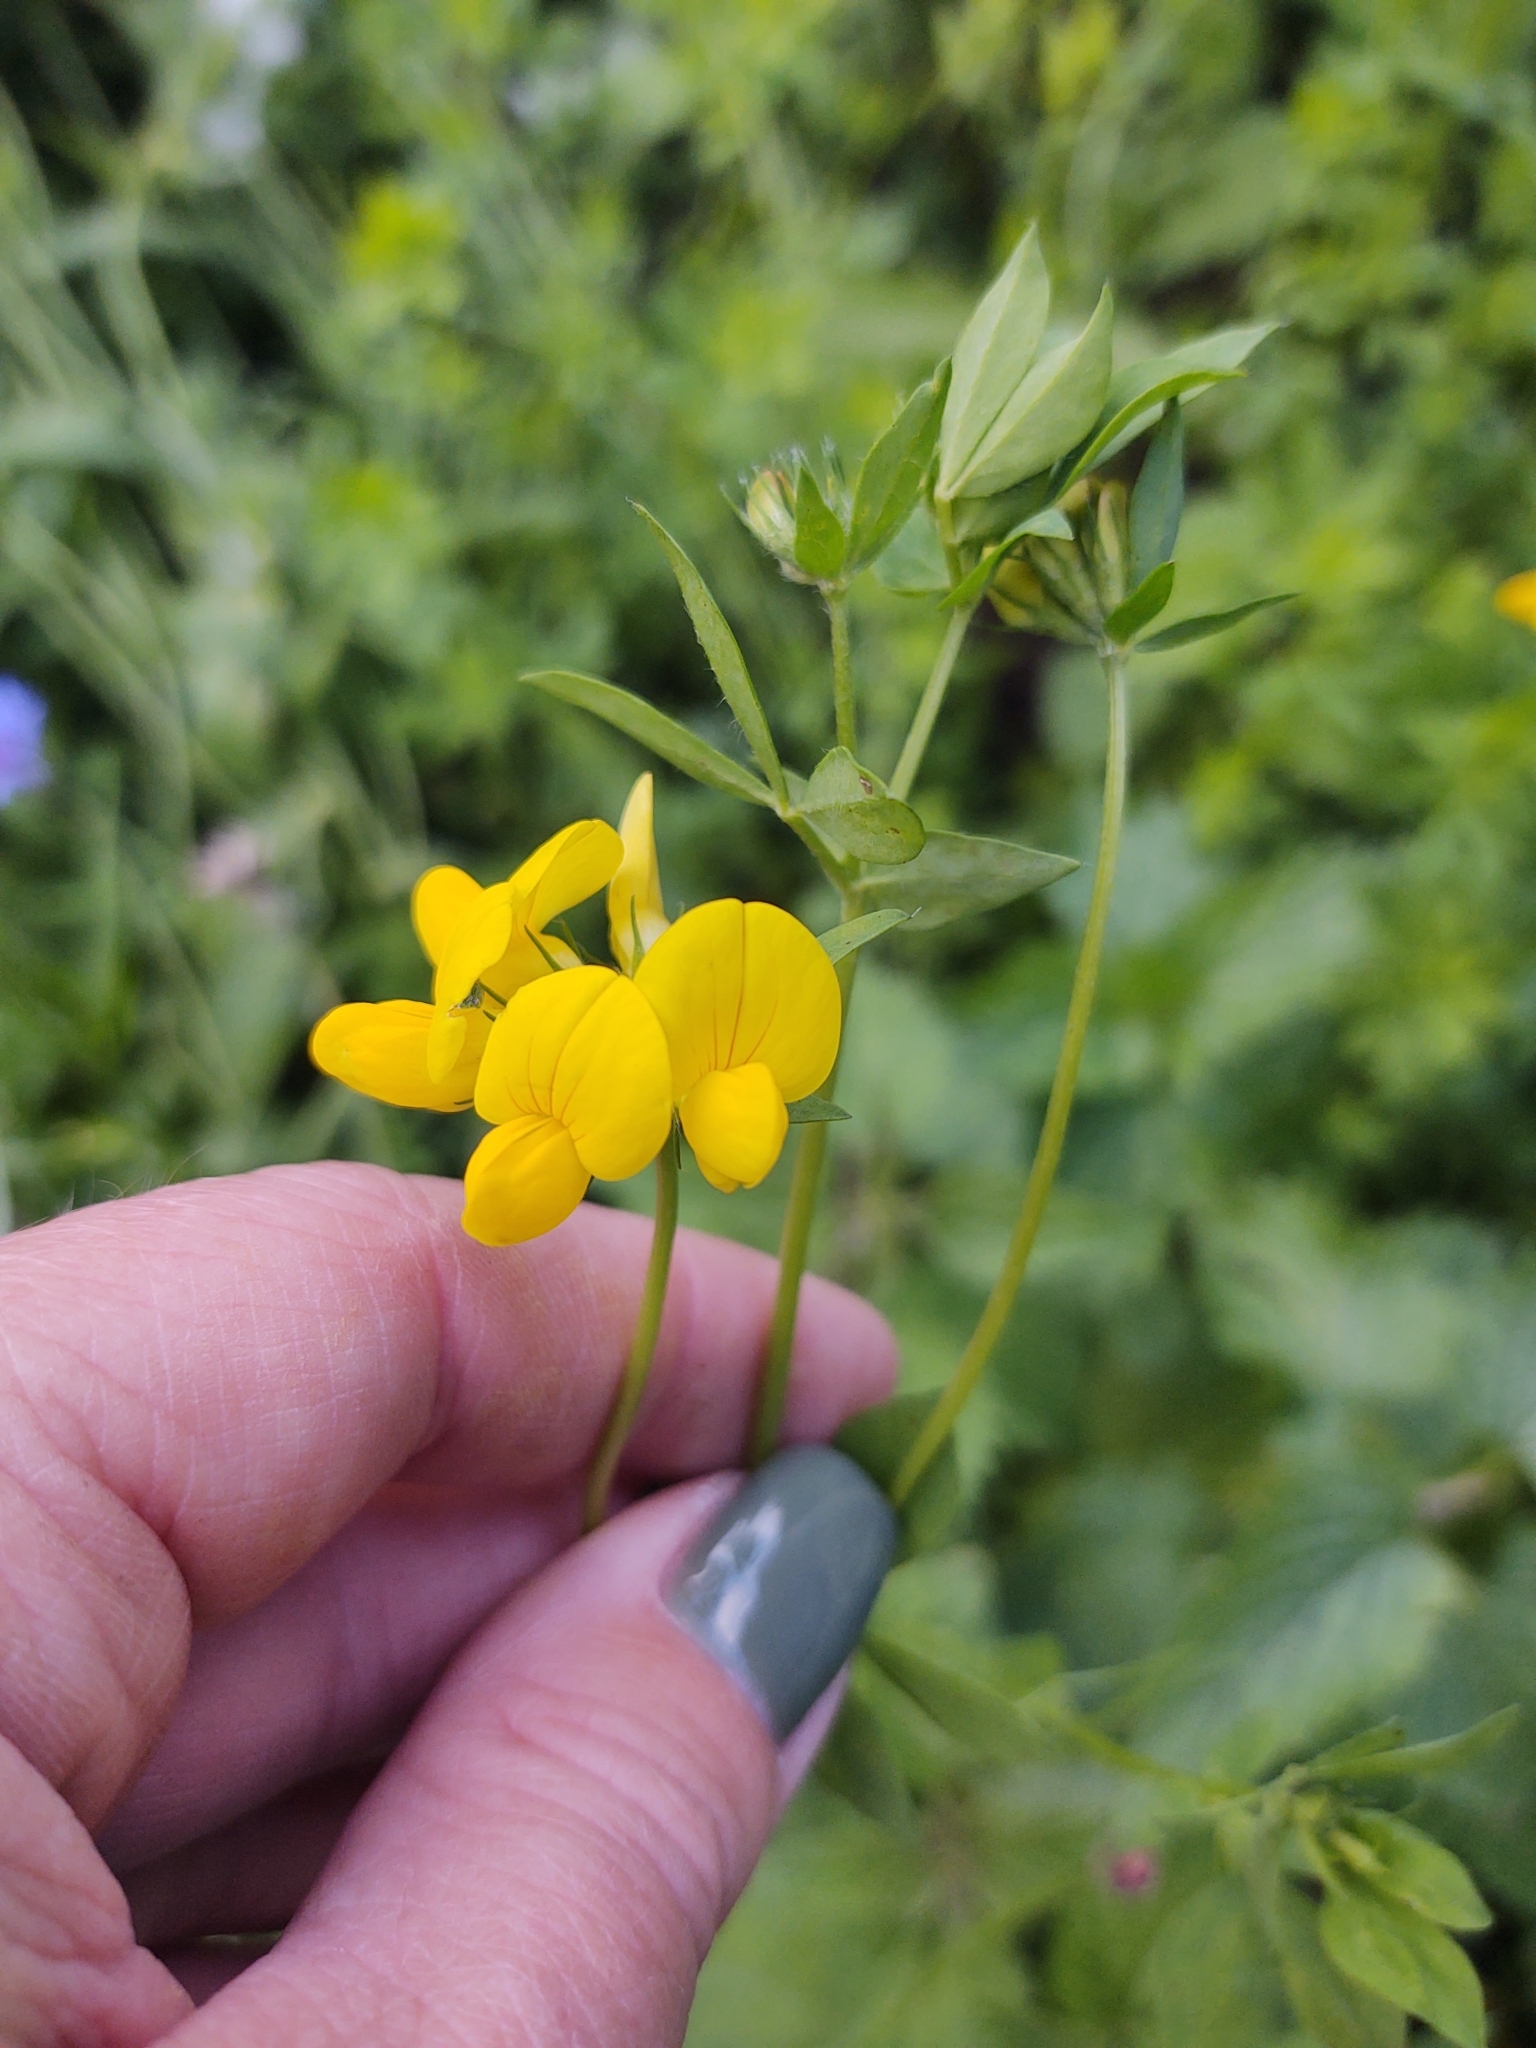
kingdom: Plantae
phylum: Tracheophyta
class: Magnoliopsida
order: Fabales
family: Fabaceae
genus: Lotus
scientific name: Lotus corniculatus
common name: Common bird's-foot-trefoil
